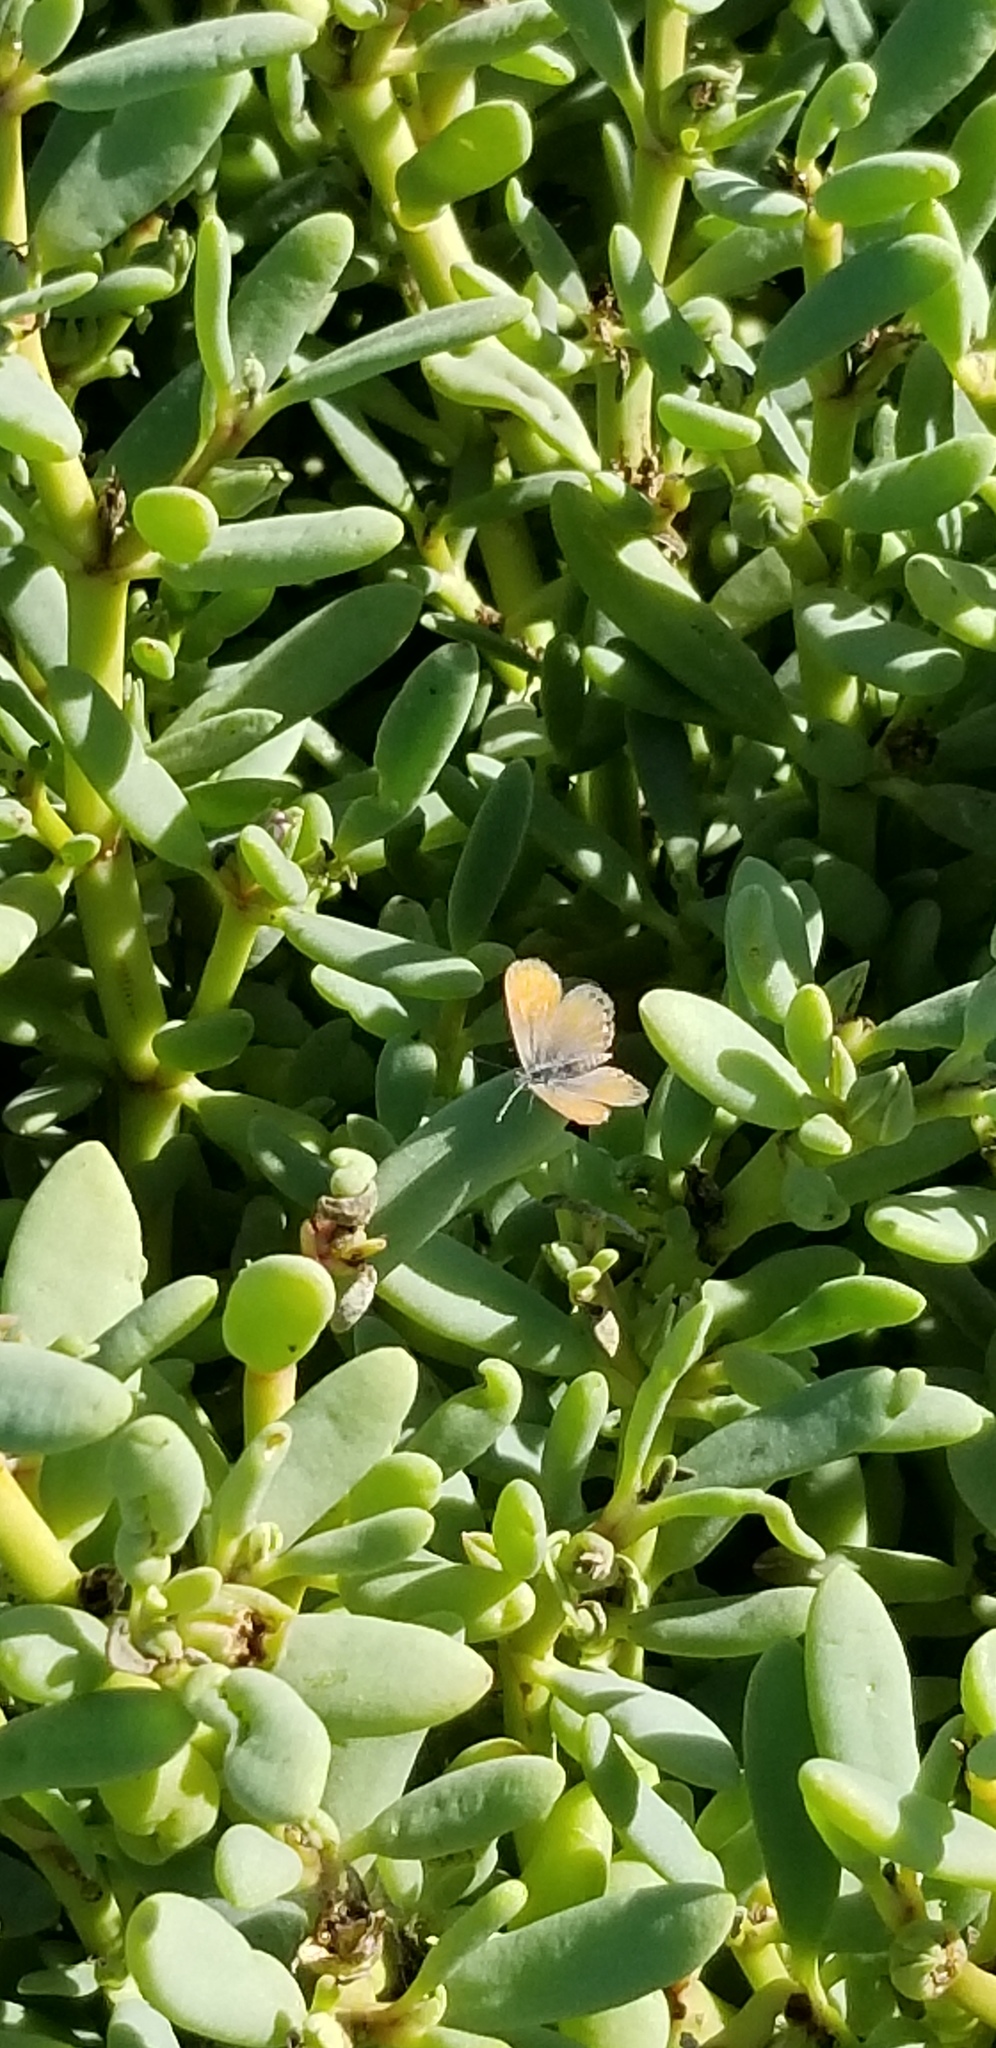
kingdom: Animalia
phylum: Arthropoda
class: Insecta
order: Lepidoptera
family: Lycaenidae
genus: Brephidium
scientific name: Brephidium exilis
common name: Pygmy blue
